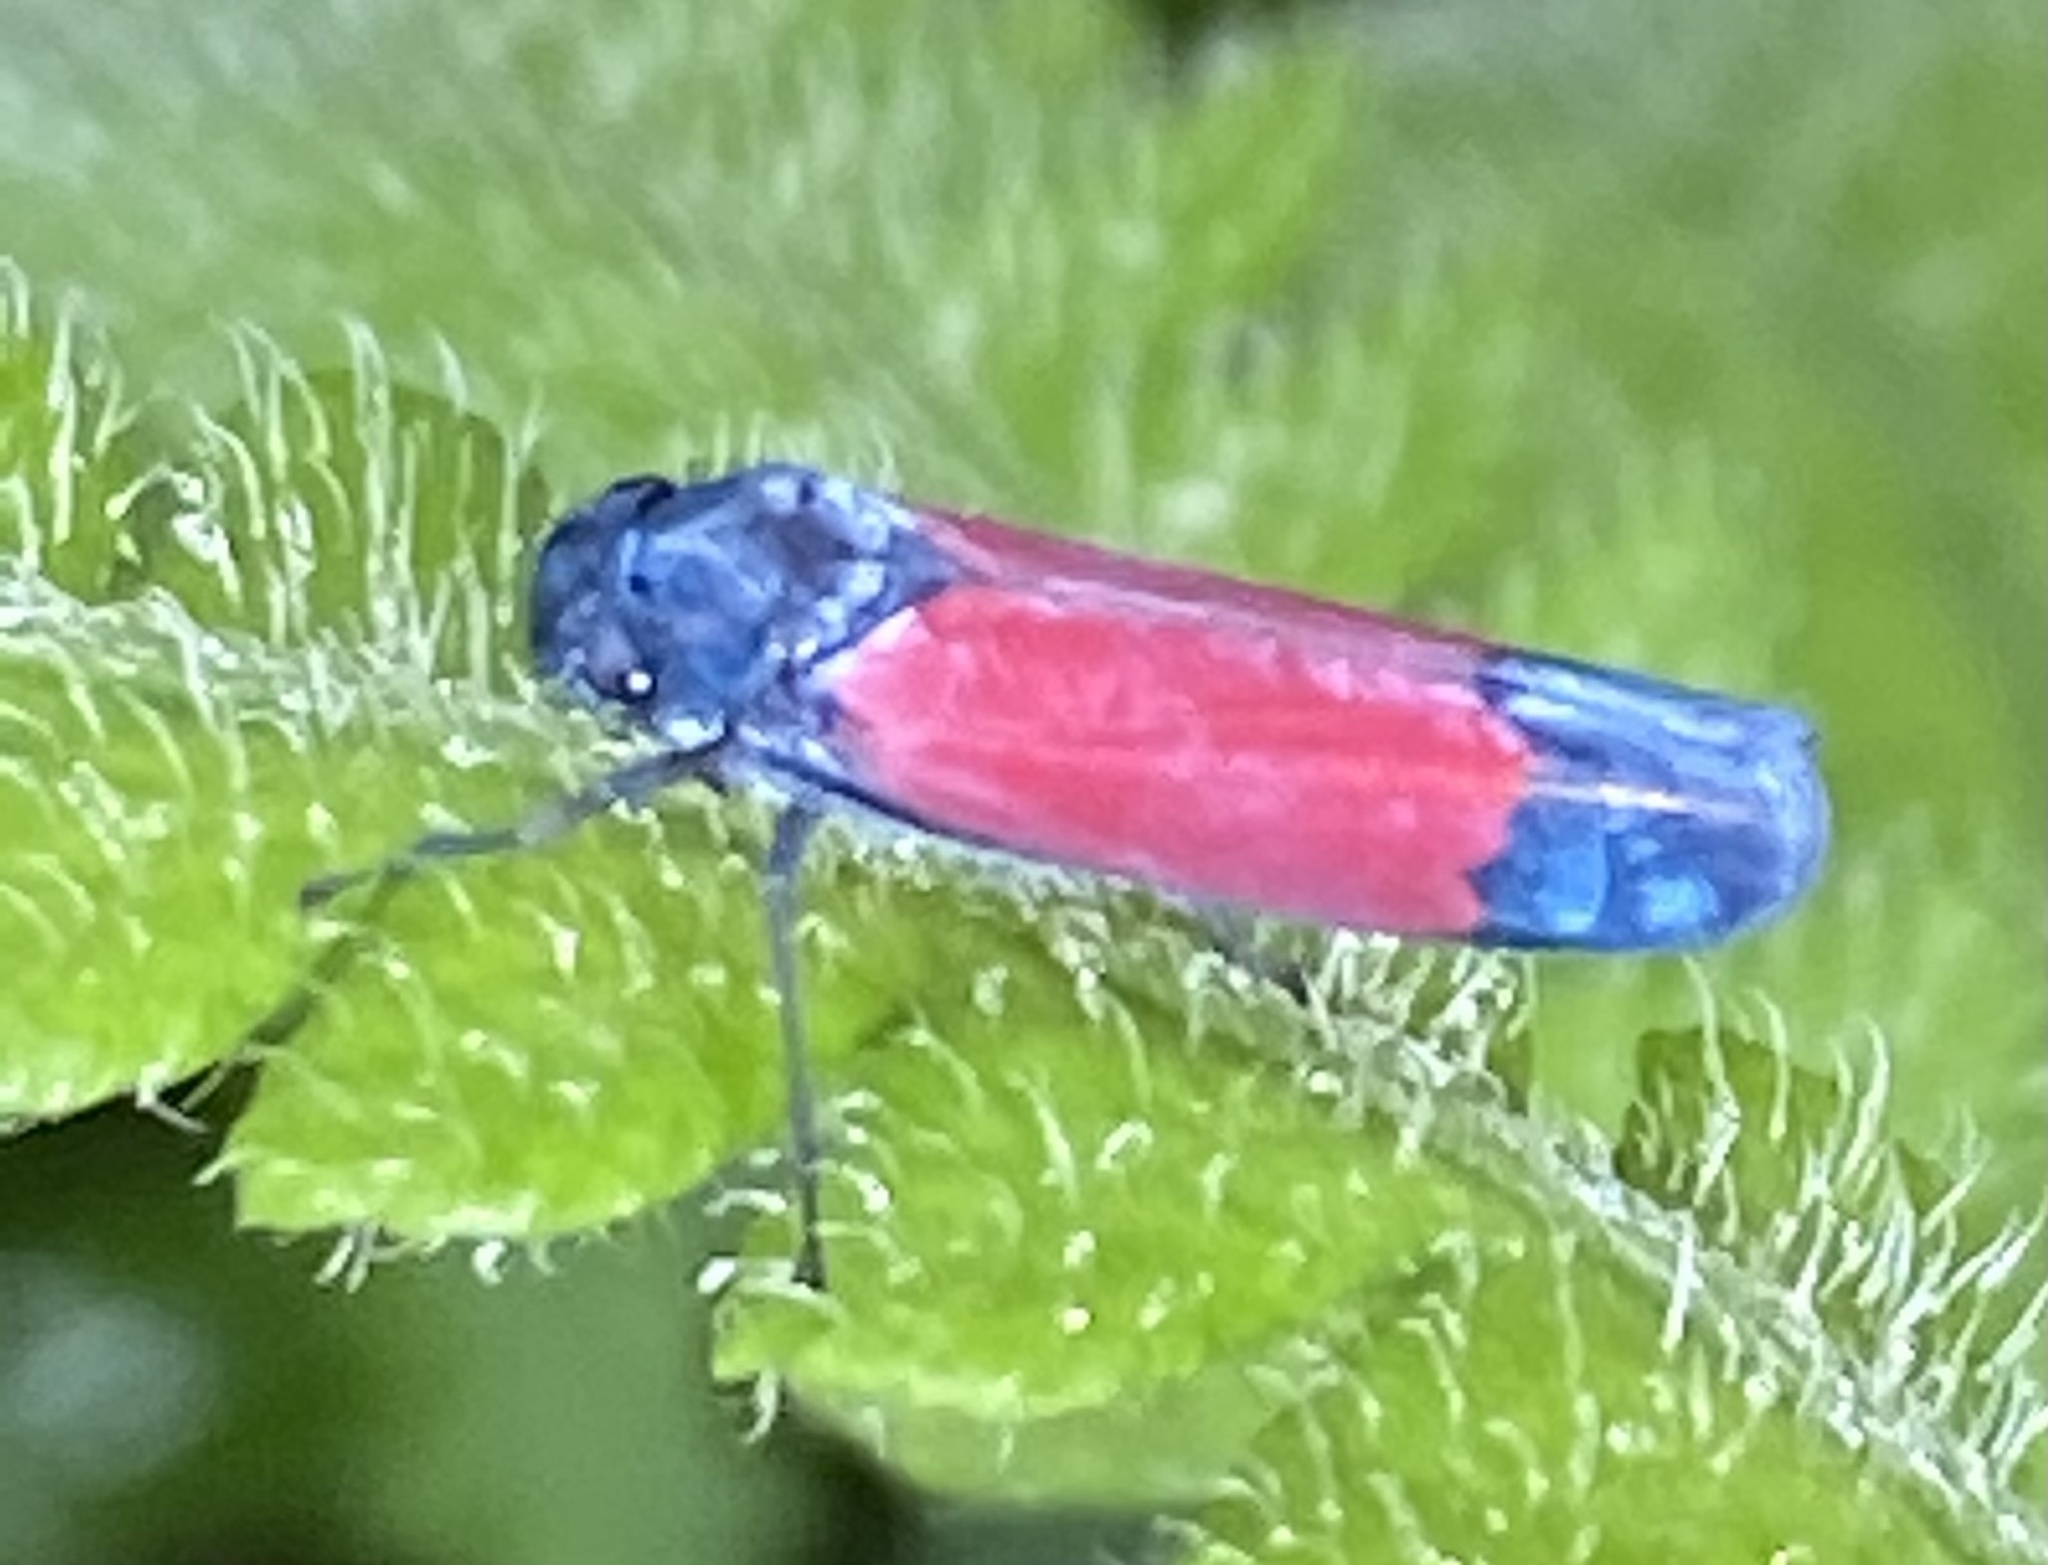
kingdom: Animalia
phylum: Arthropoda
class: Insecta
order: Hemiptera
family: Cicadellidae
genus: Cardioscarta
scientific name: Cardioscarta flavifrons
